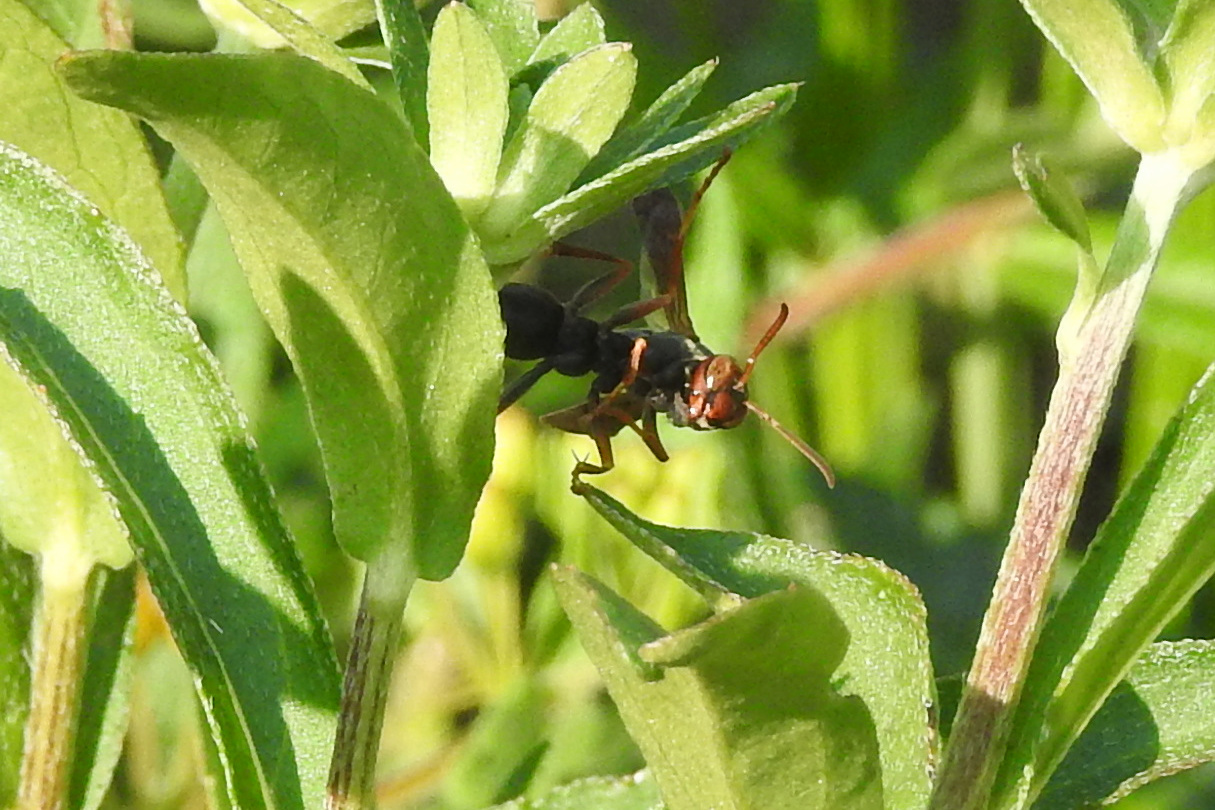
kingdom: Animalia
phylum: Arthropoda
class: Insecta
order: Hymenoptera
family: Eumenidae
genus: Polistes
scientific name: Polistes fuscatus
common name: Dark paper wasp
